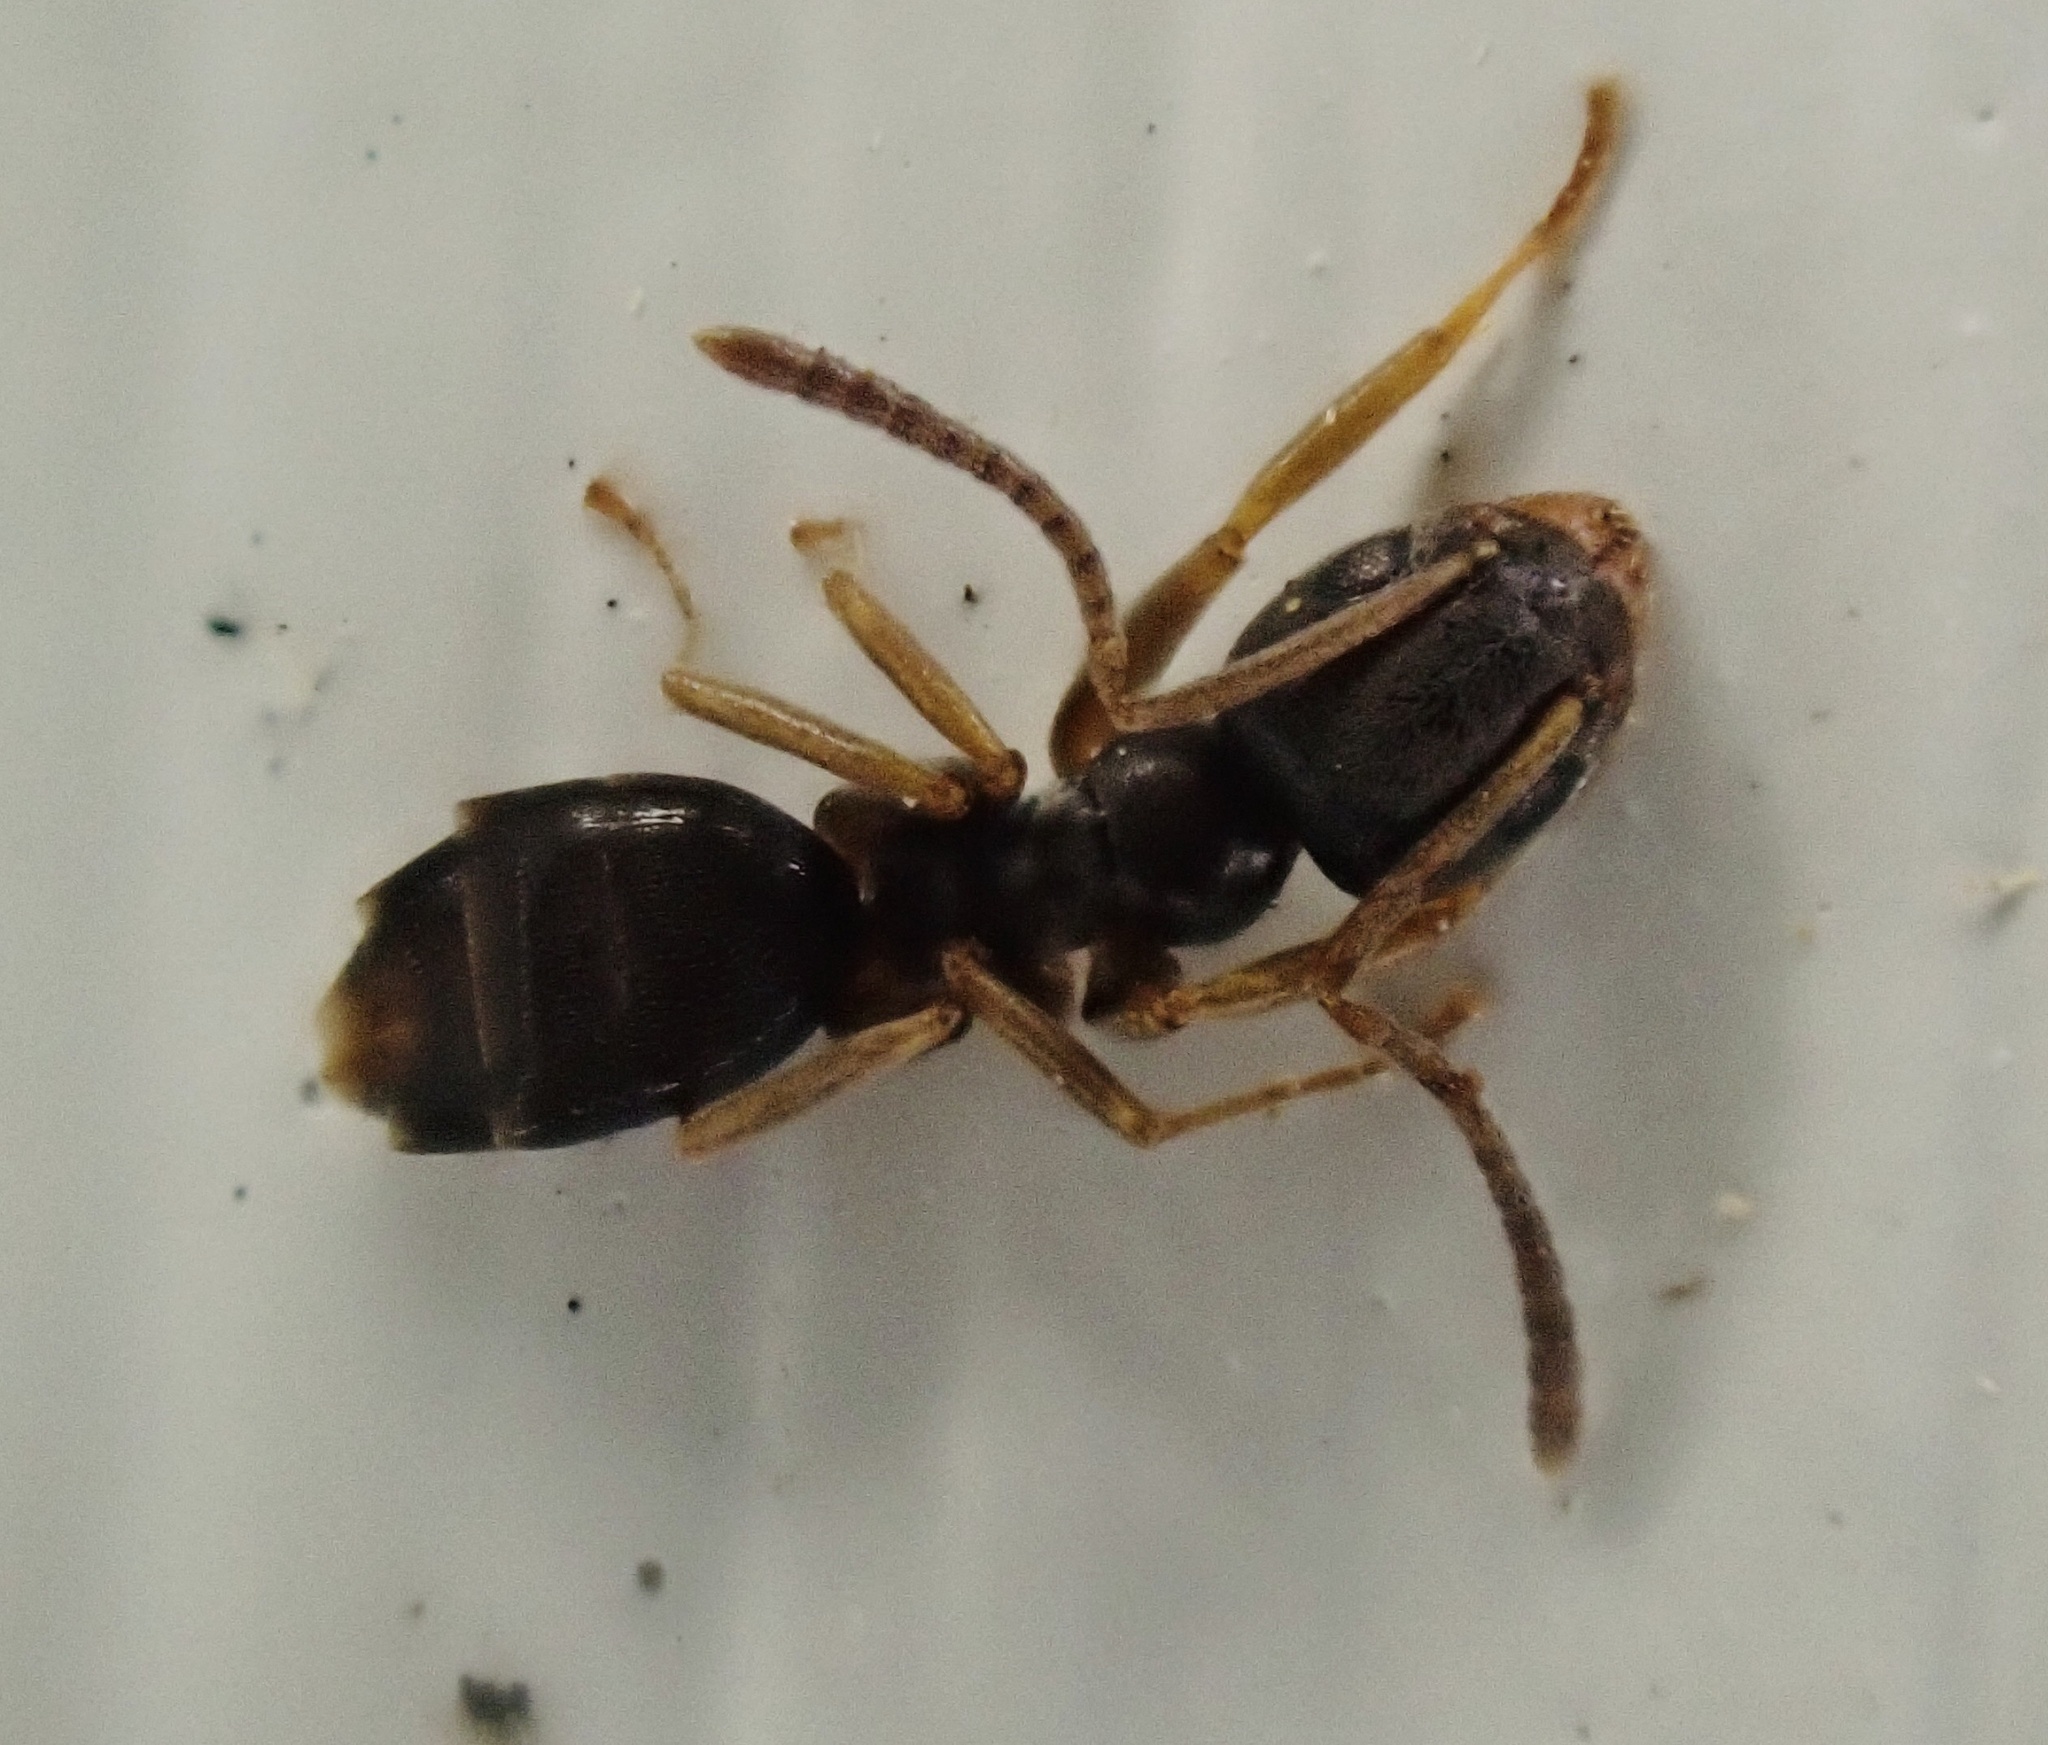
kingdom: Animalia
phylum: Arthropoda
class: Insecta
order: Hymenoptera
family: Formicidae
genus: Tapinoma
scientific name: Tapinoma sessile
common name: Odorous house ant
